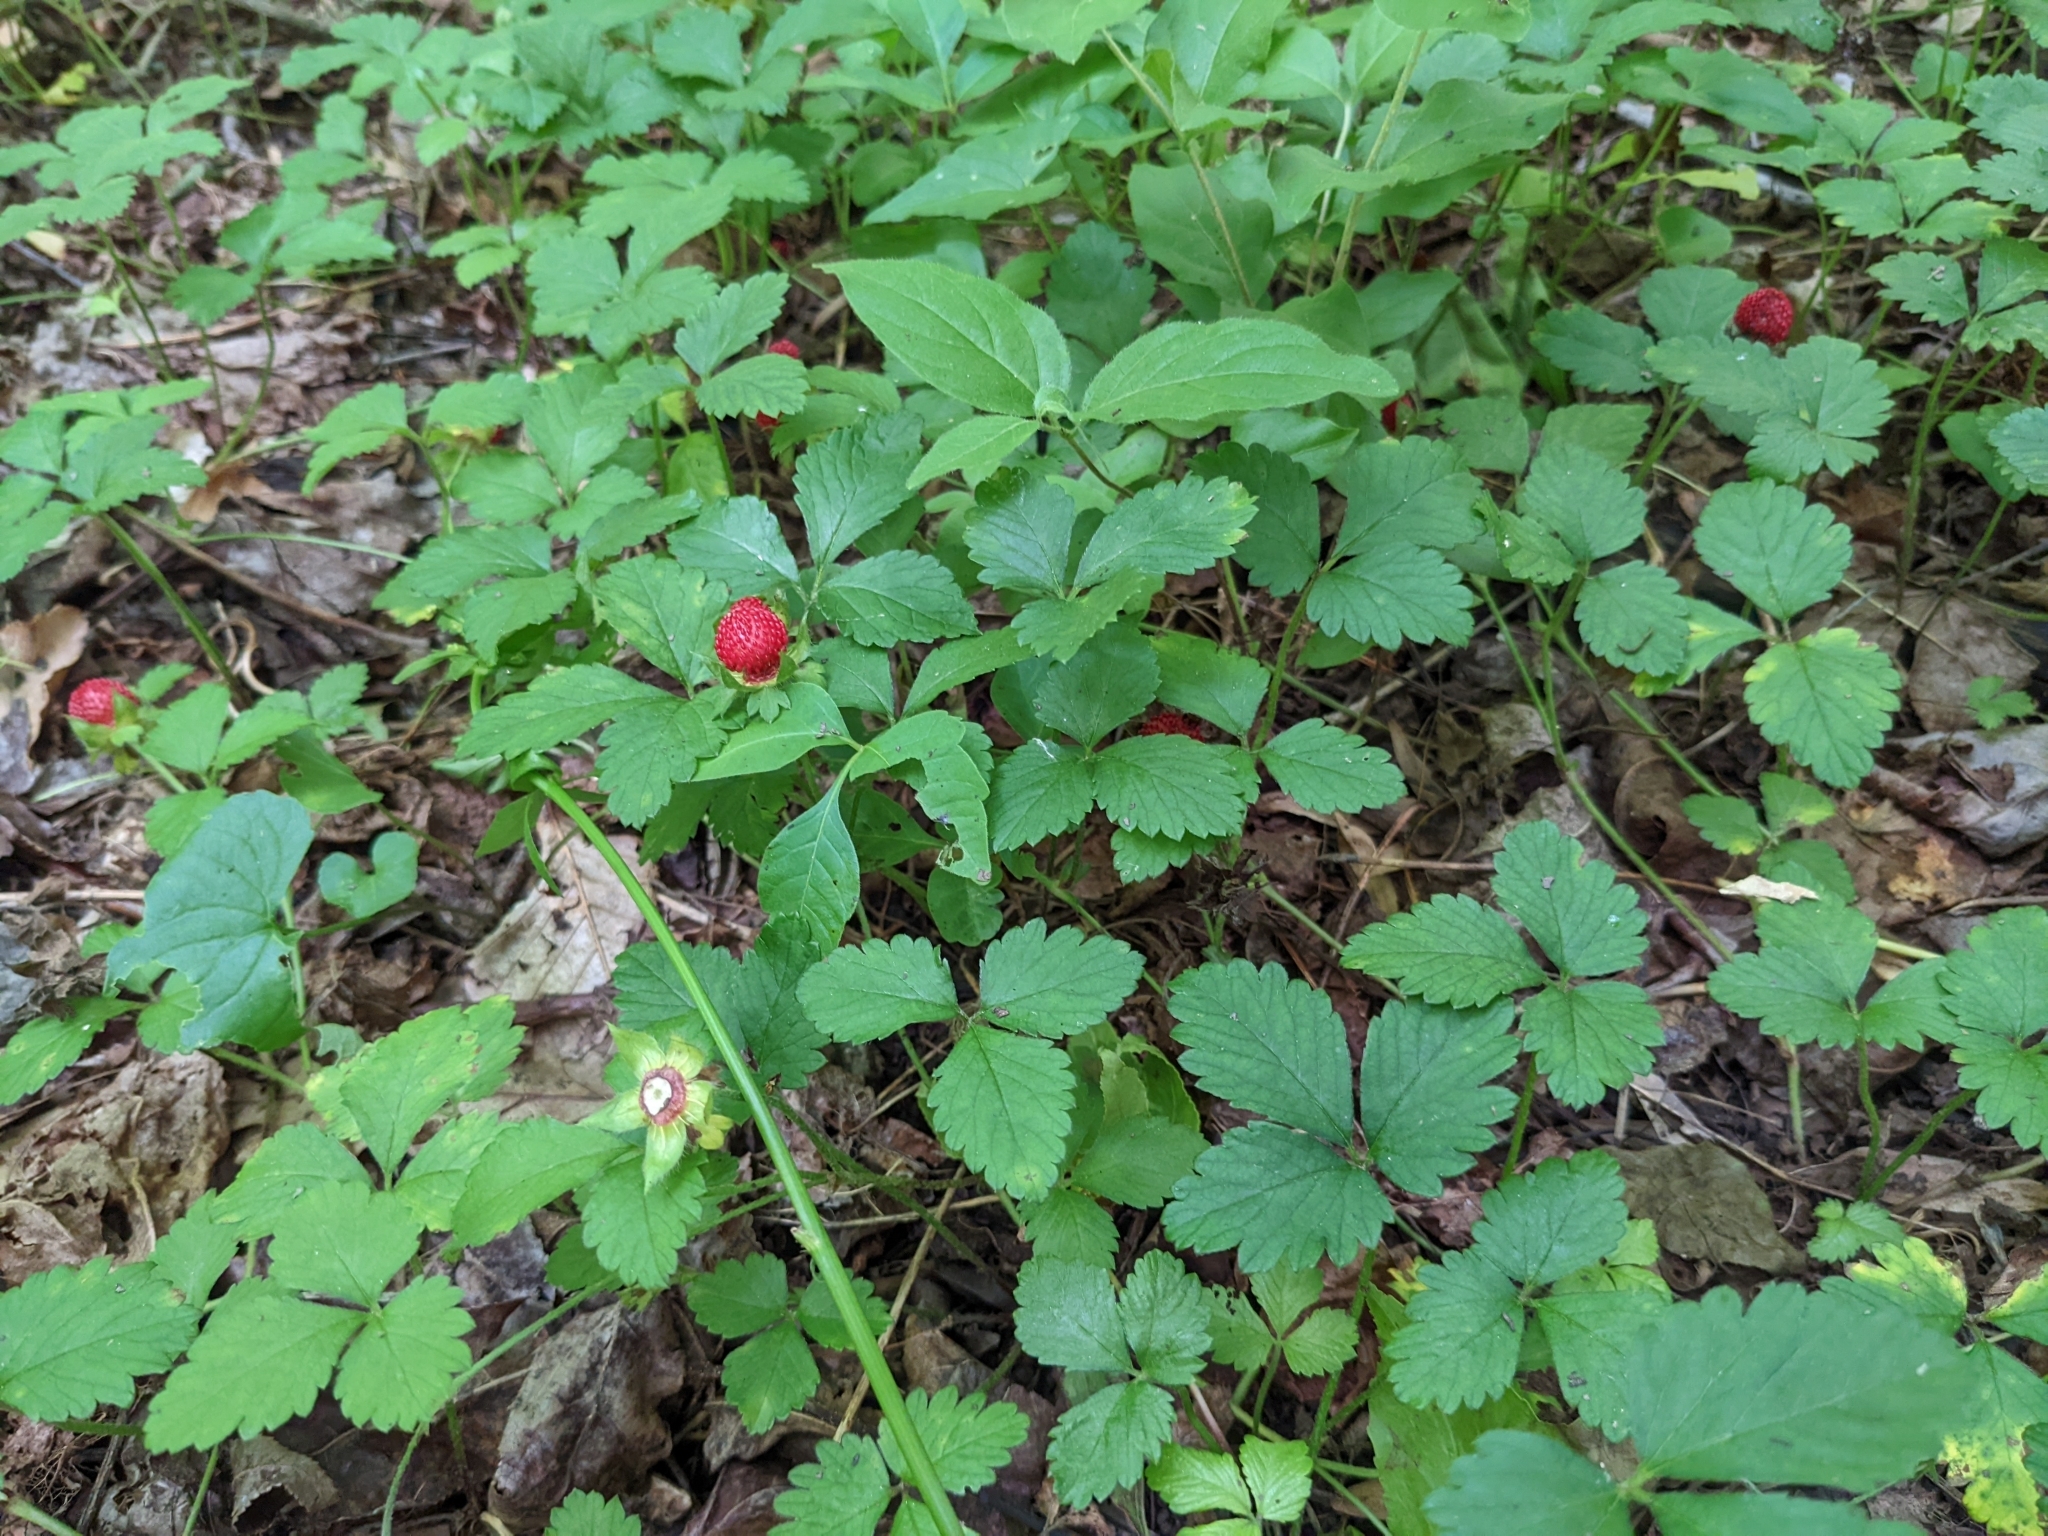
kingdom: Plantae
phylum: Tracheophyta
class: Magnoliopsida
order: Rosales
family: Rosaceae
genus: Potentilla
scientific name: Potentilla indica
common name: Yellow-flowered strawberry
